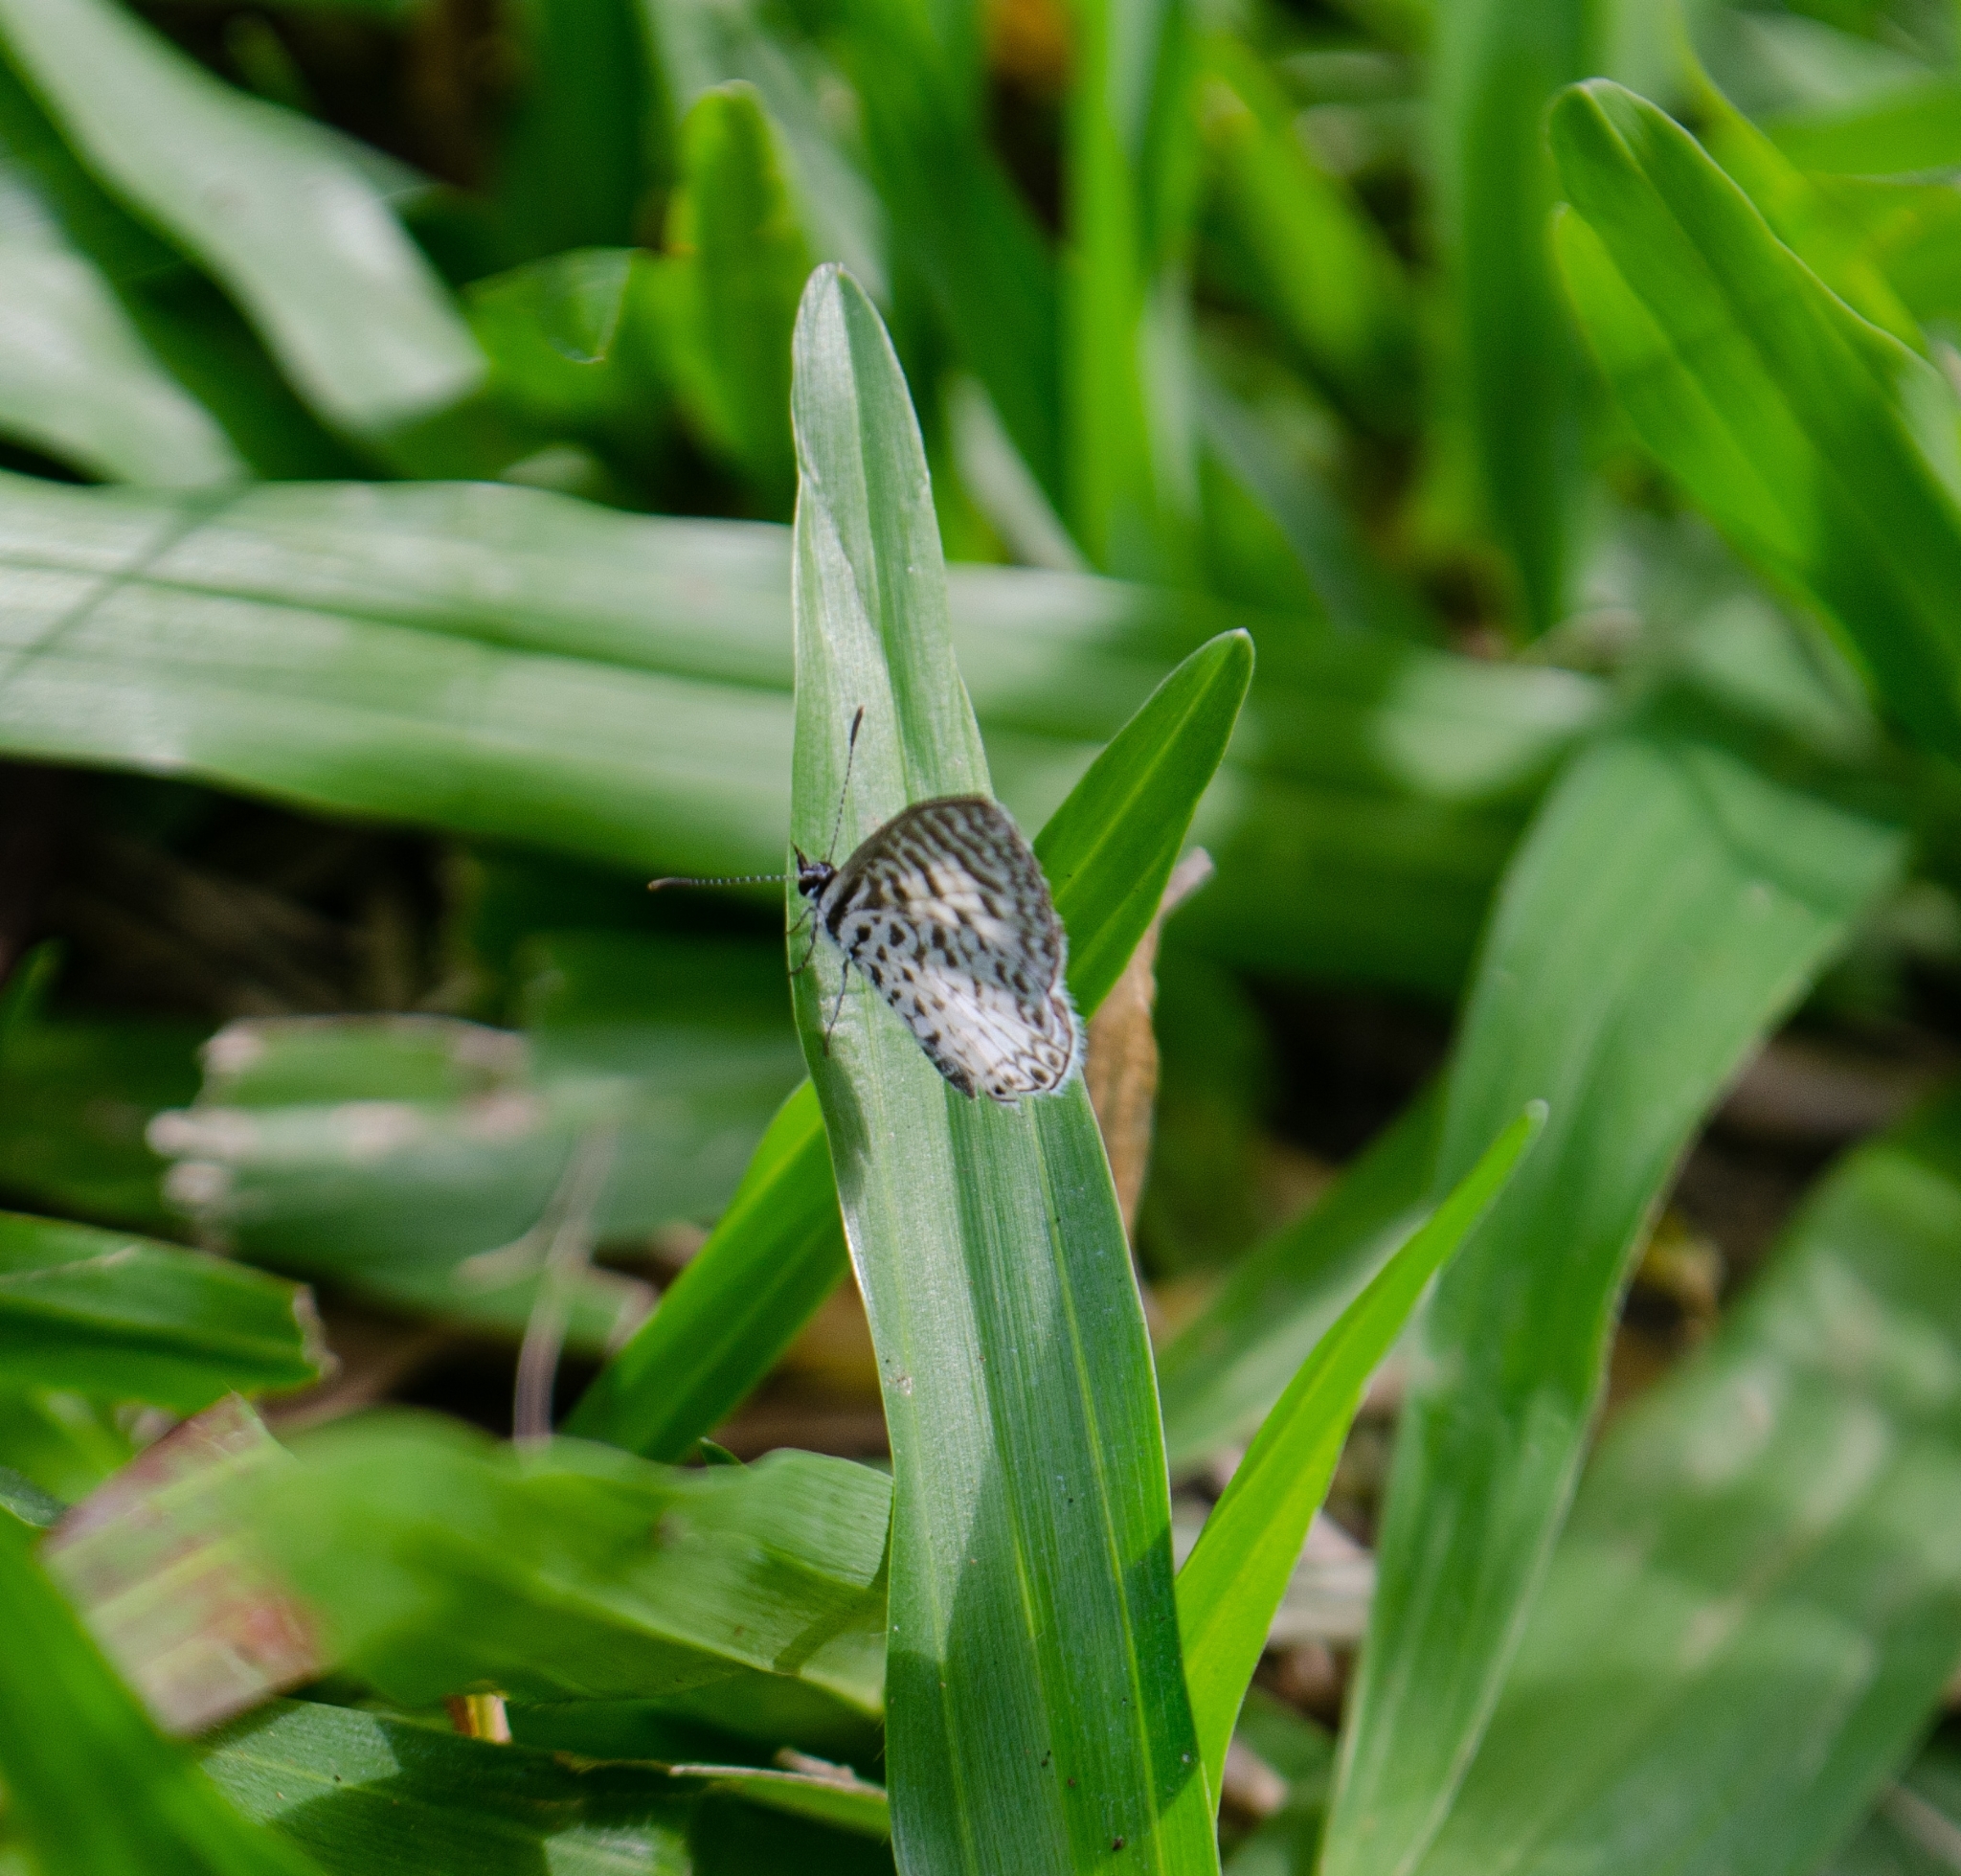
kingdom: Animalia
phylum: Arthropoda
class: Insecta
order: Lepidoptera
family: Lycaenidae
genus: Leptotes
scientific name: Leptotes cassius
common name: Cassius blue
